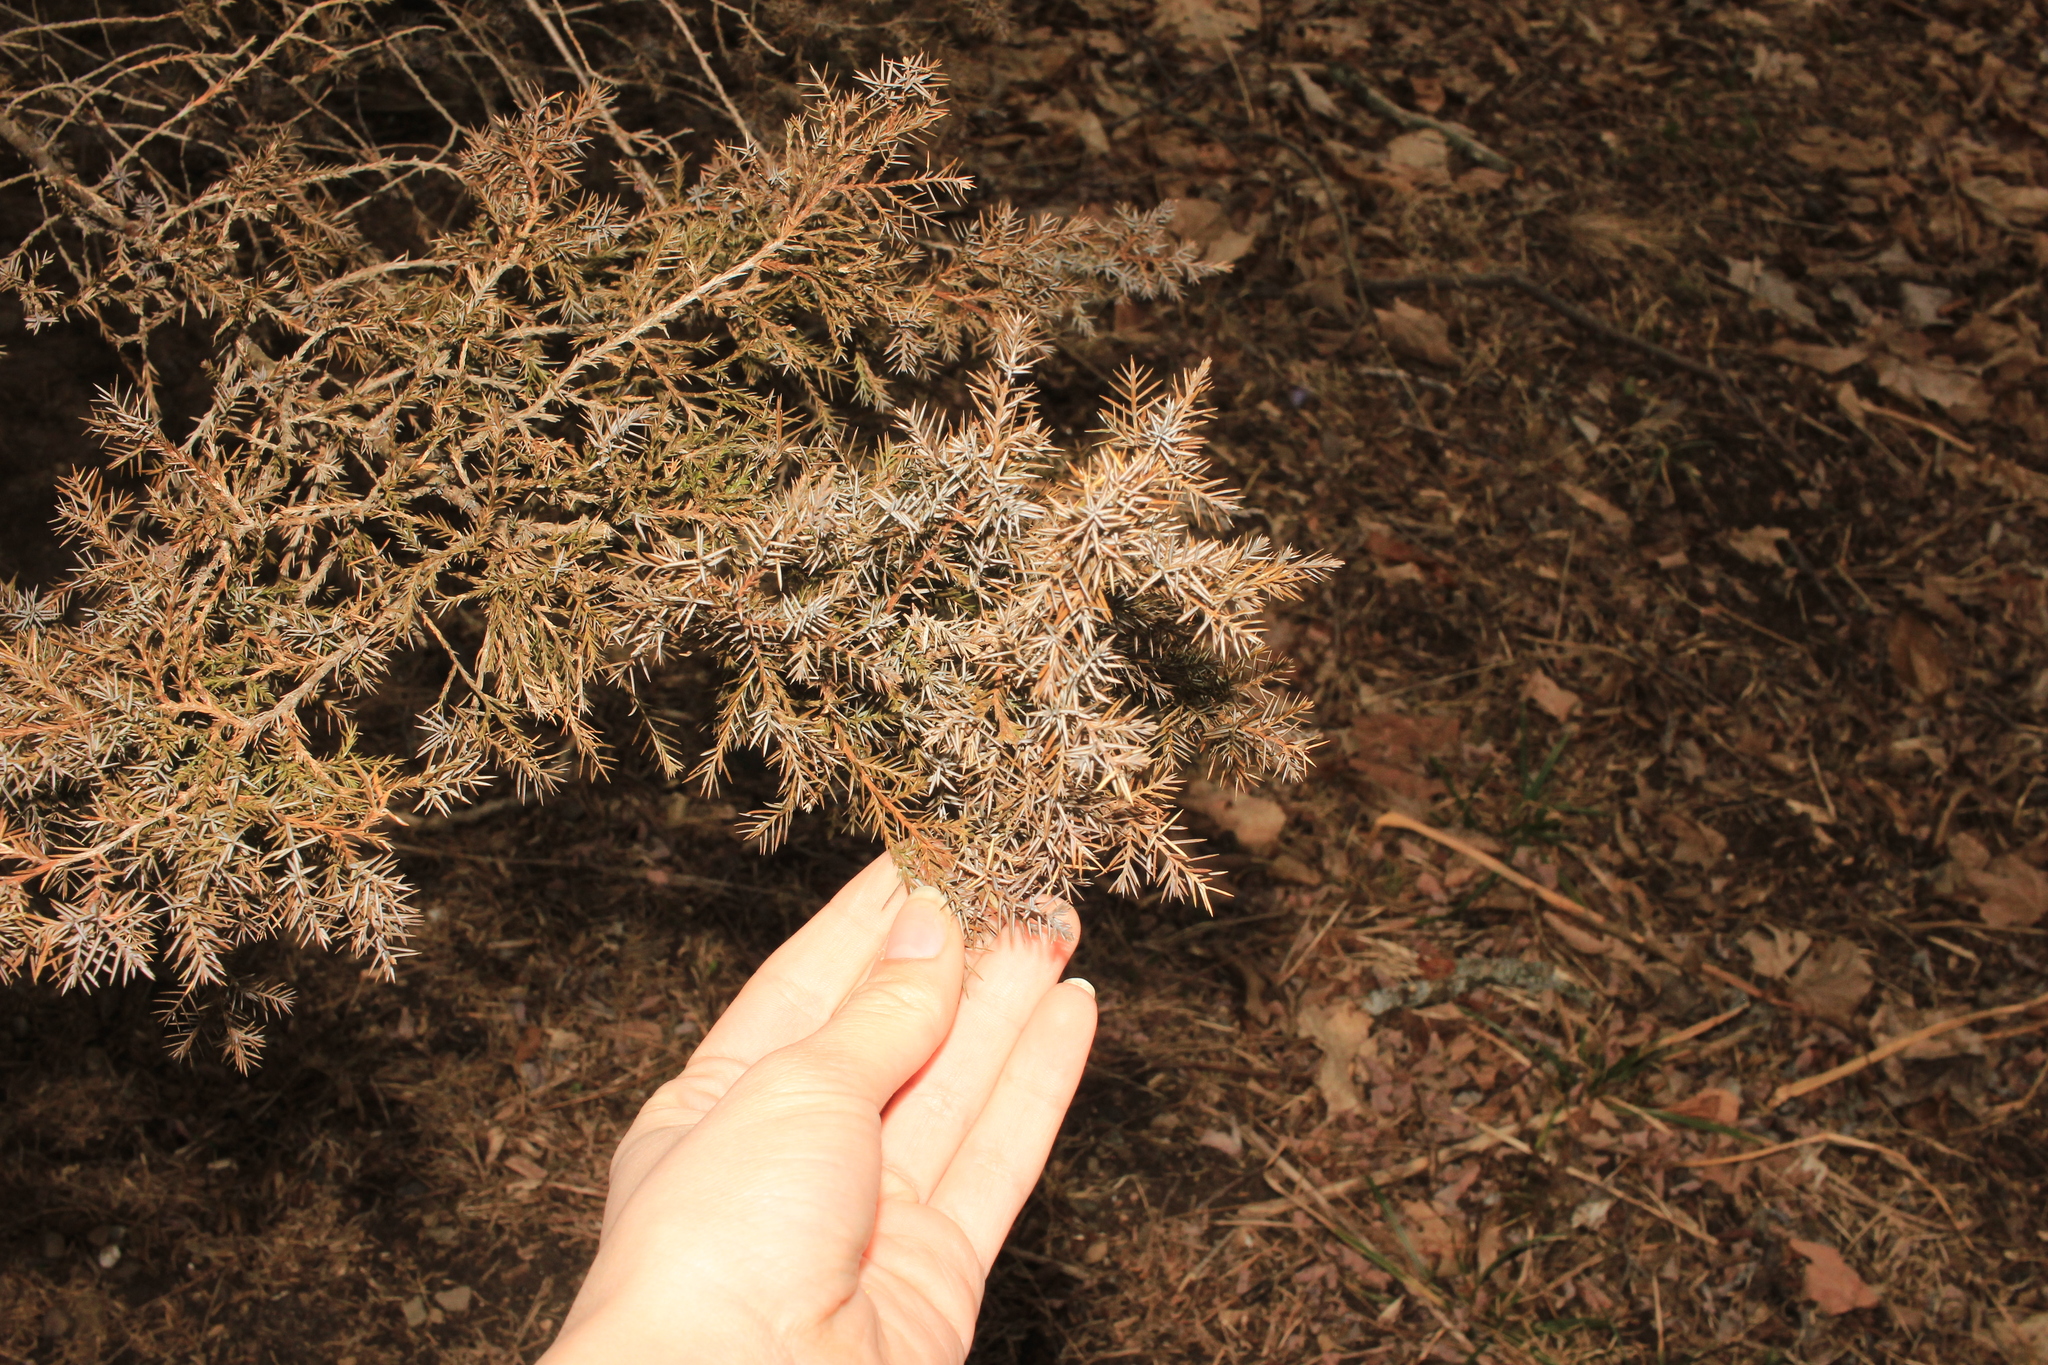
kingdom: Plantae
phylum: Tracheophyta
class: Pinopsida
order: Pinales
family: Cupressaceae
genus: Juniperus
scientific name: Juniperus virginiana
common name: Red juniper
